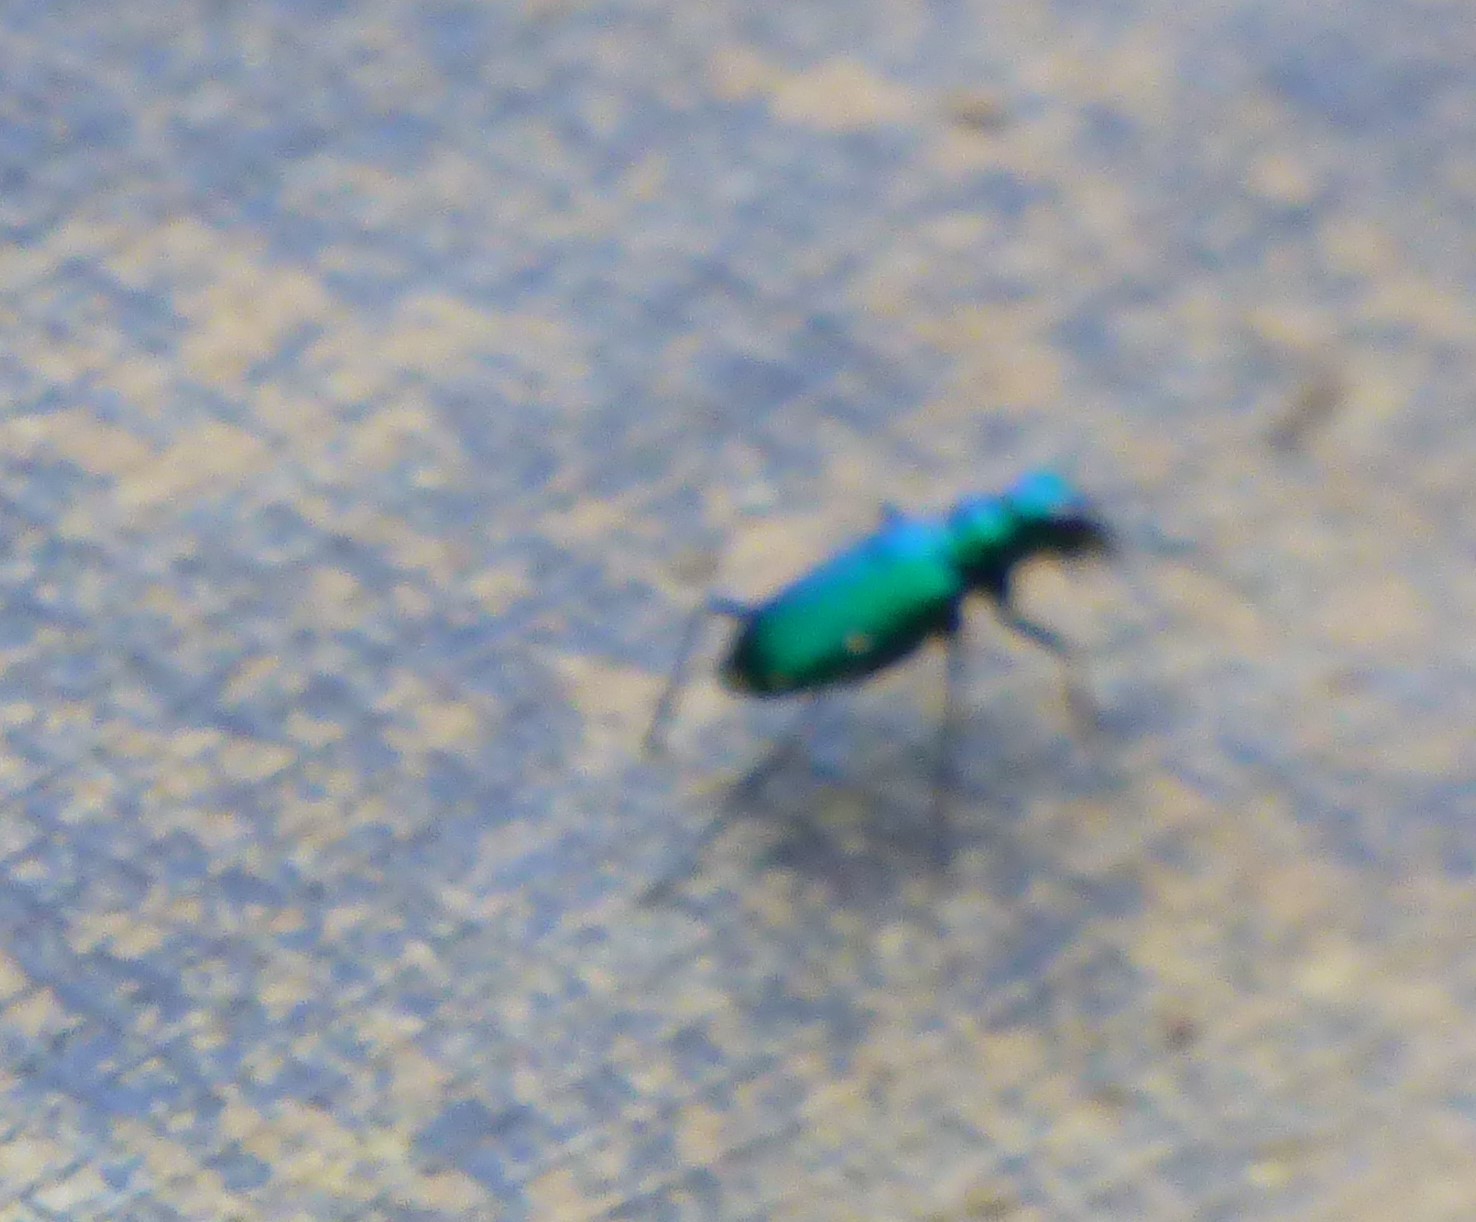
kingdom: Animalia
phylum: Arthropoda
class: Insecta
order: Coleoptera
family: Carabidae
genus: Cicindela
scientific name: Cicindela sexguttata
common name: Six-spotted tiger beetle
